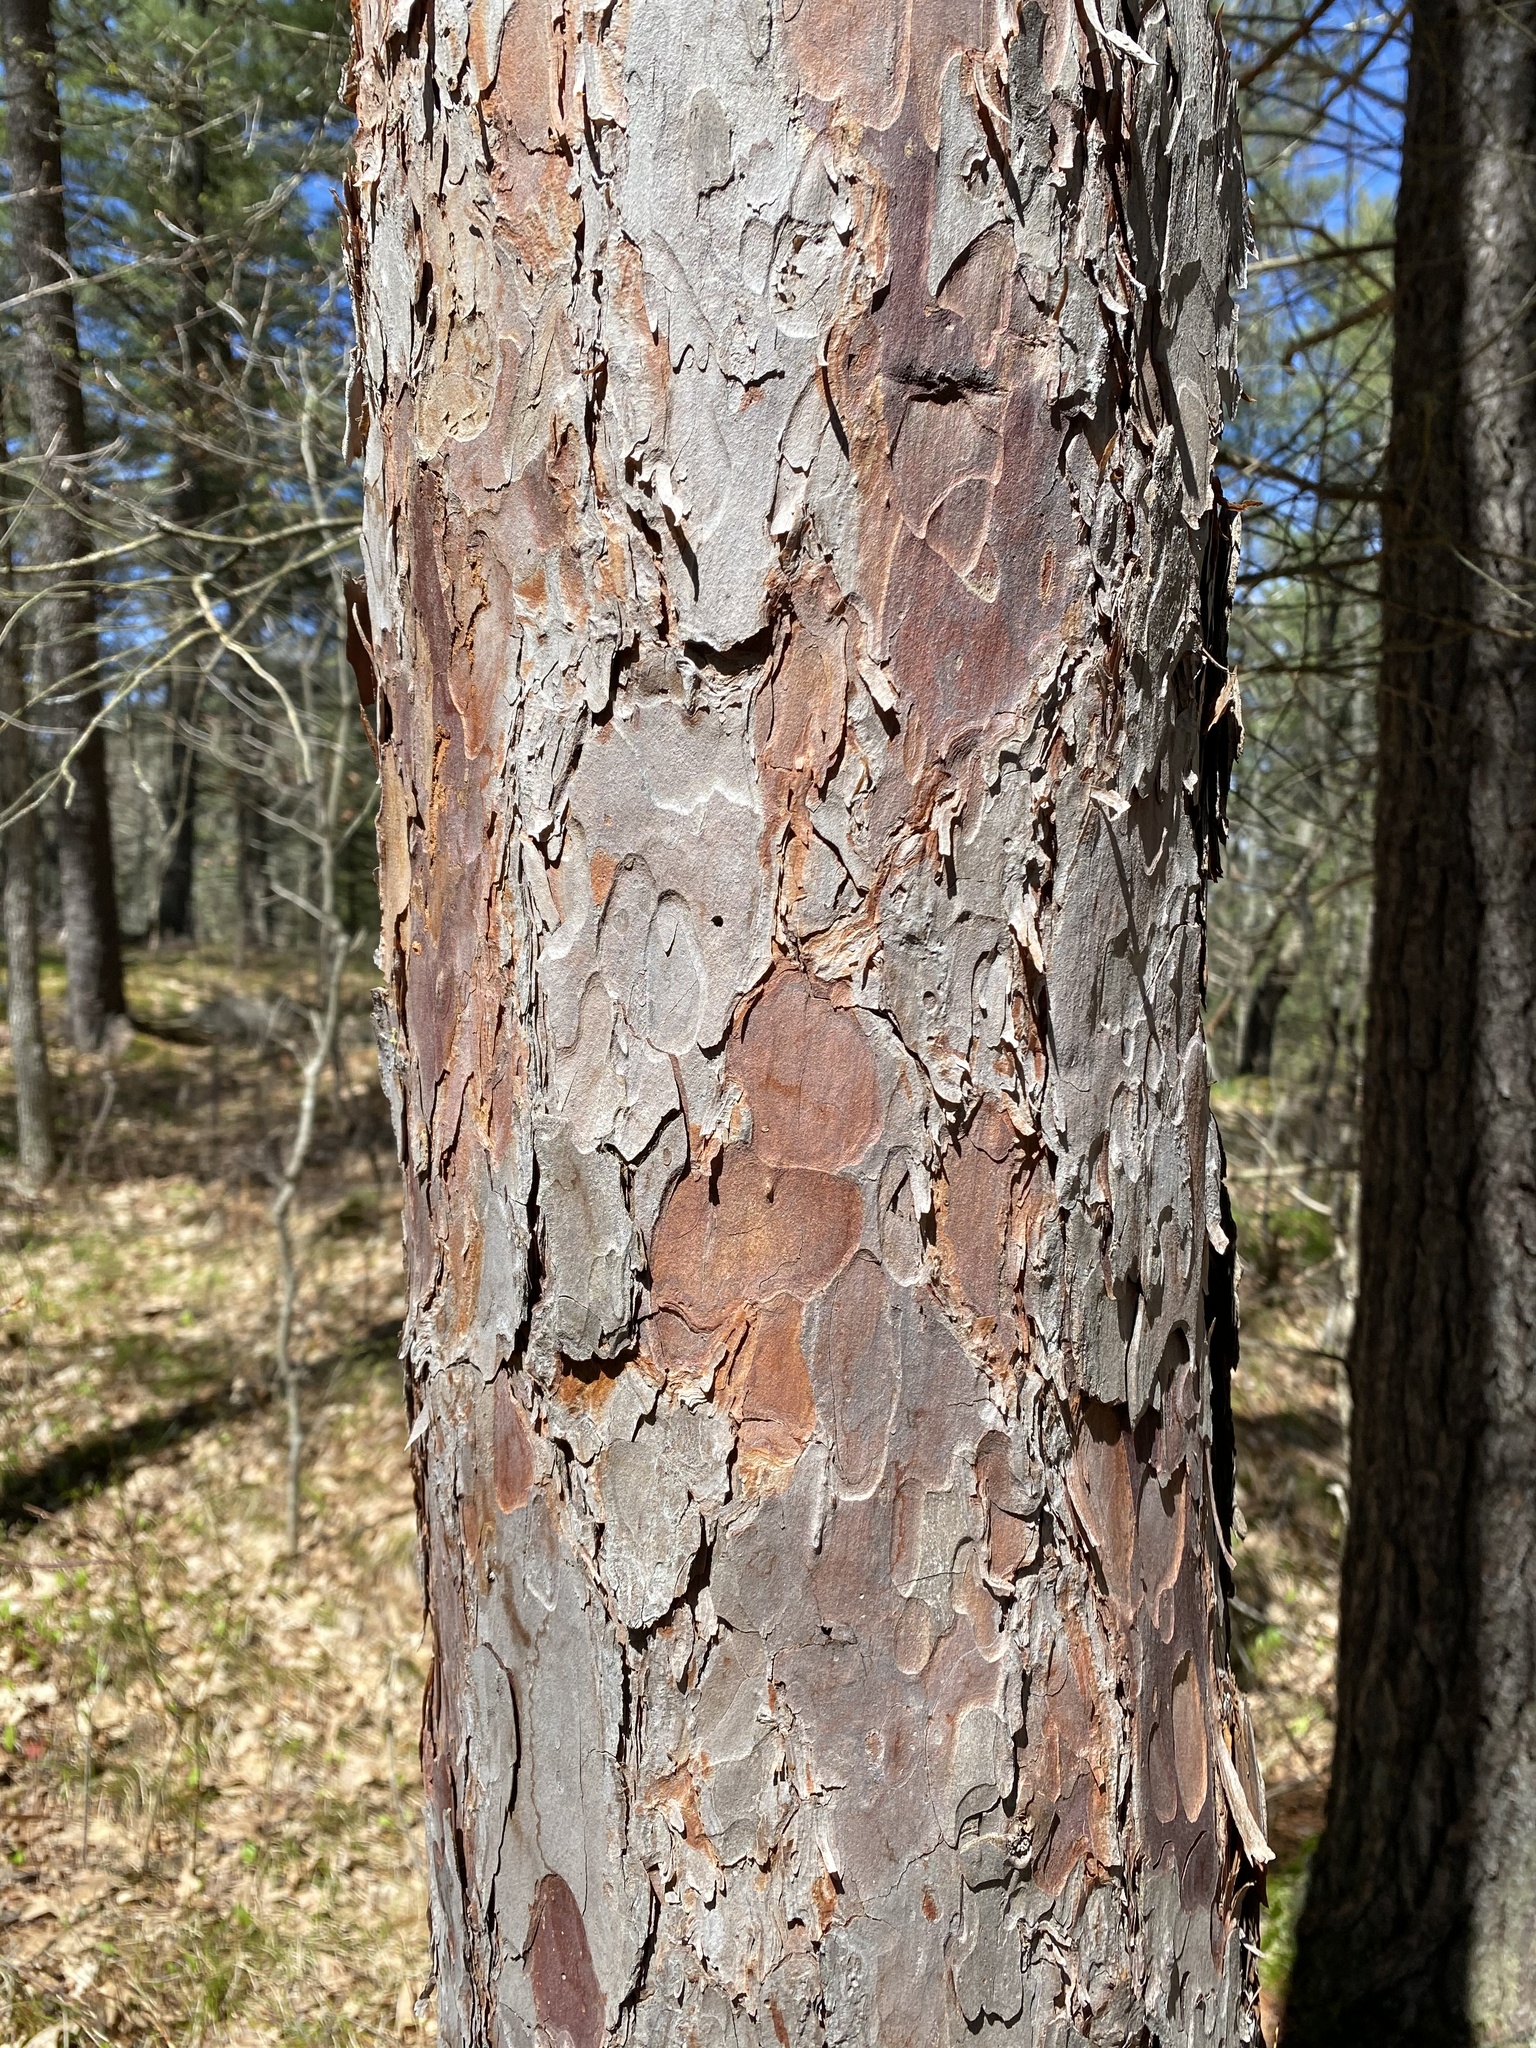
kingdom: Plantae
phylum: Tracheophyta
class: Pinopsida
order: Pinales
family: Pinaceae
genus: Pinus
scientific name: Pinus resinosa
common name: Norway pine
